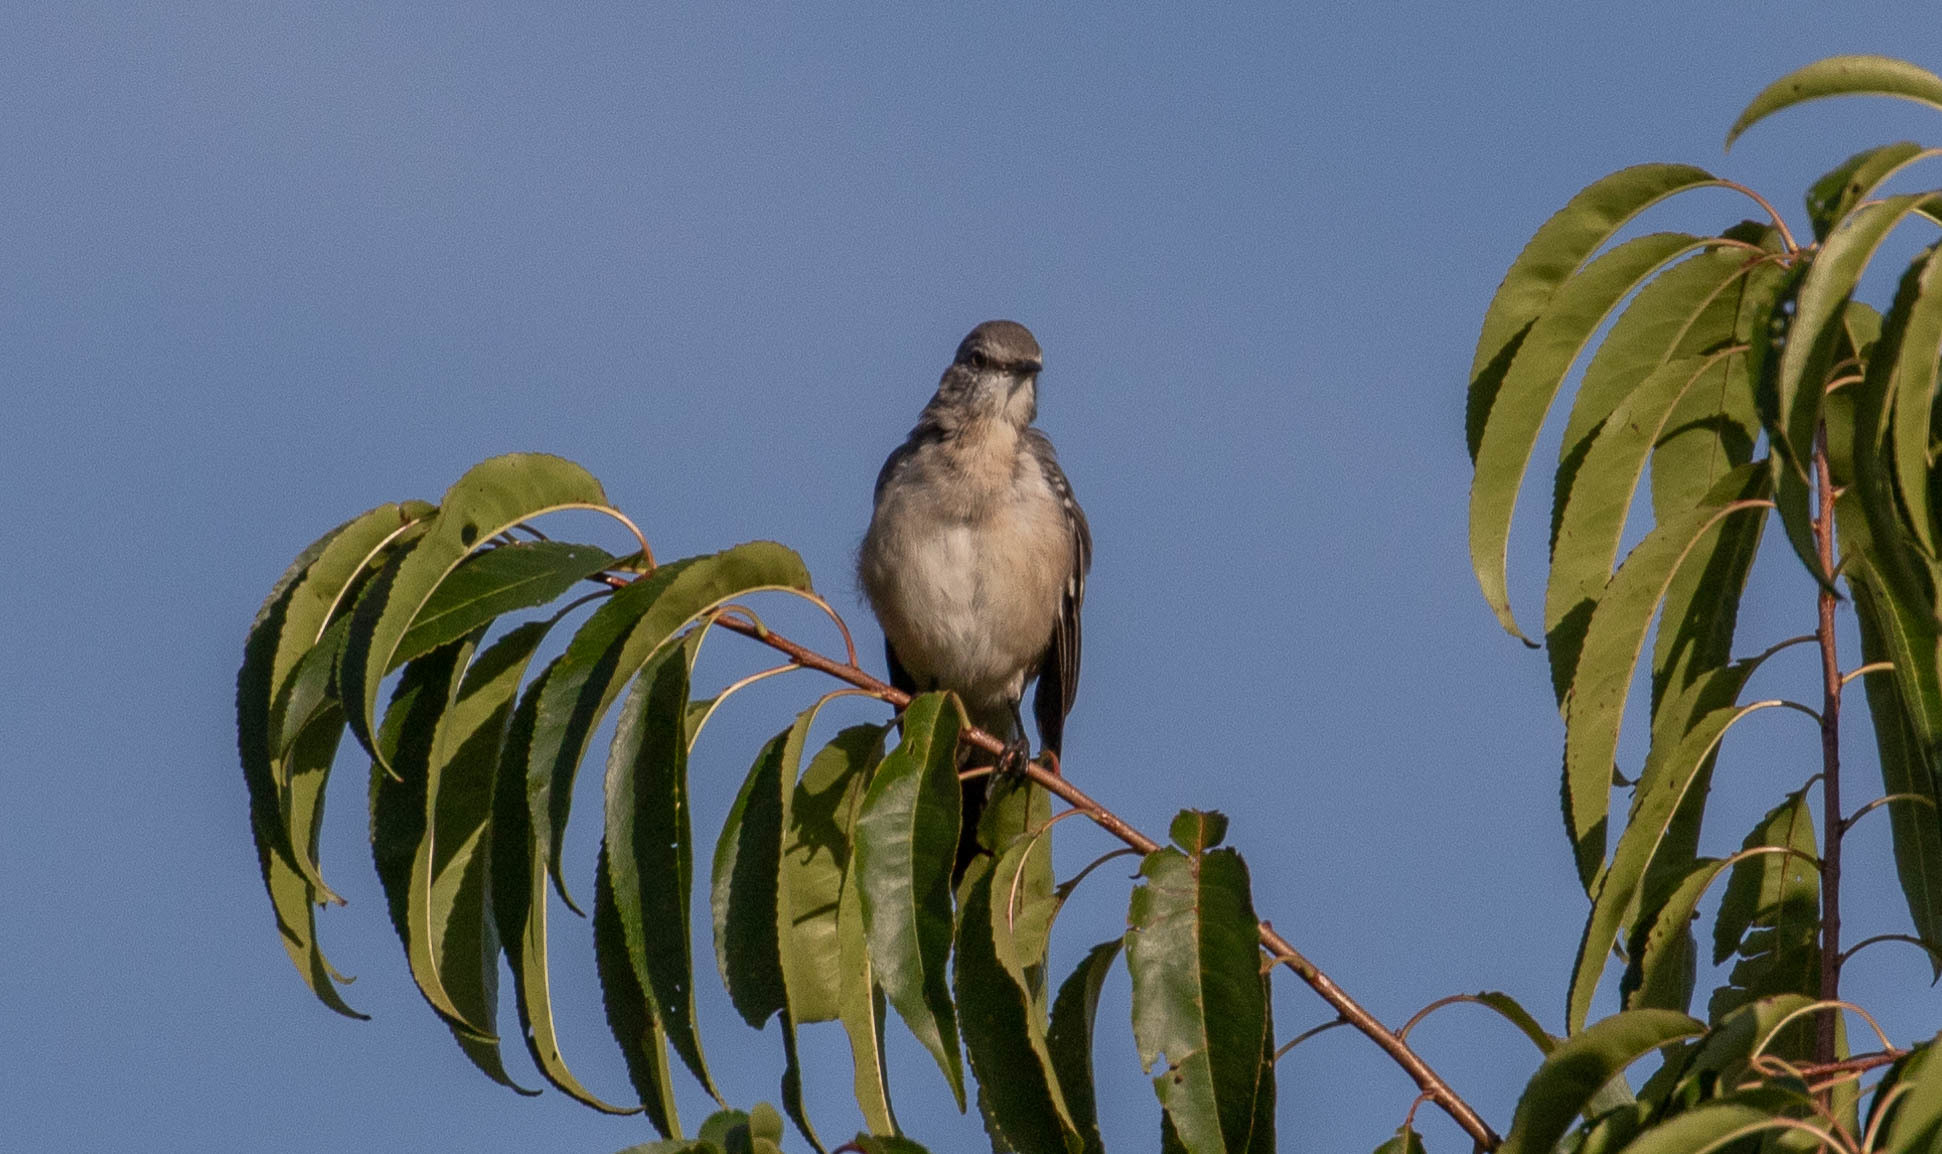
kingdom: Animalia
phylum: Chordata
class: Aves
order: Passeriformes
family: Mimidae
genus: Mimus
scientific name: Mimus polyglottos
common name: Northern mockingbird
